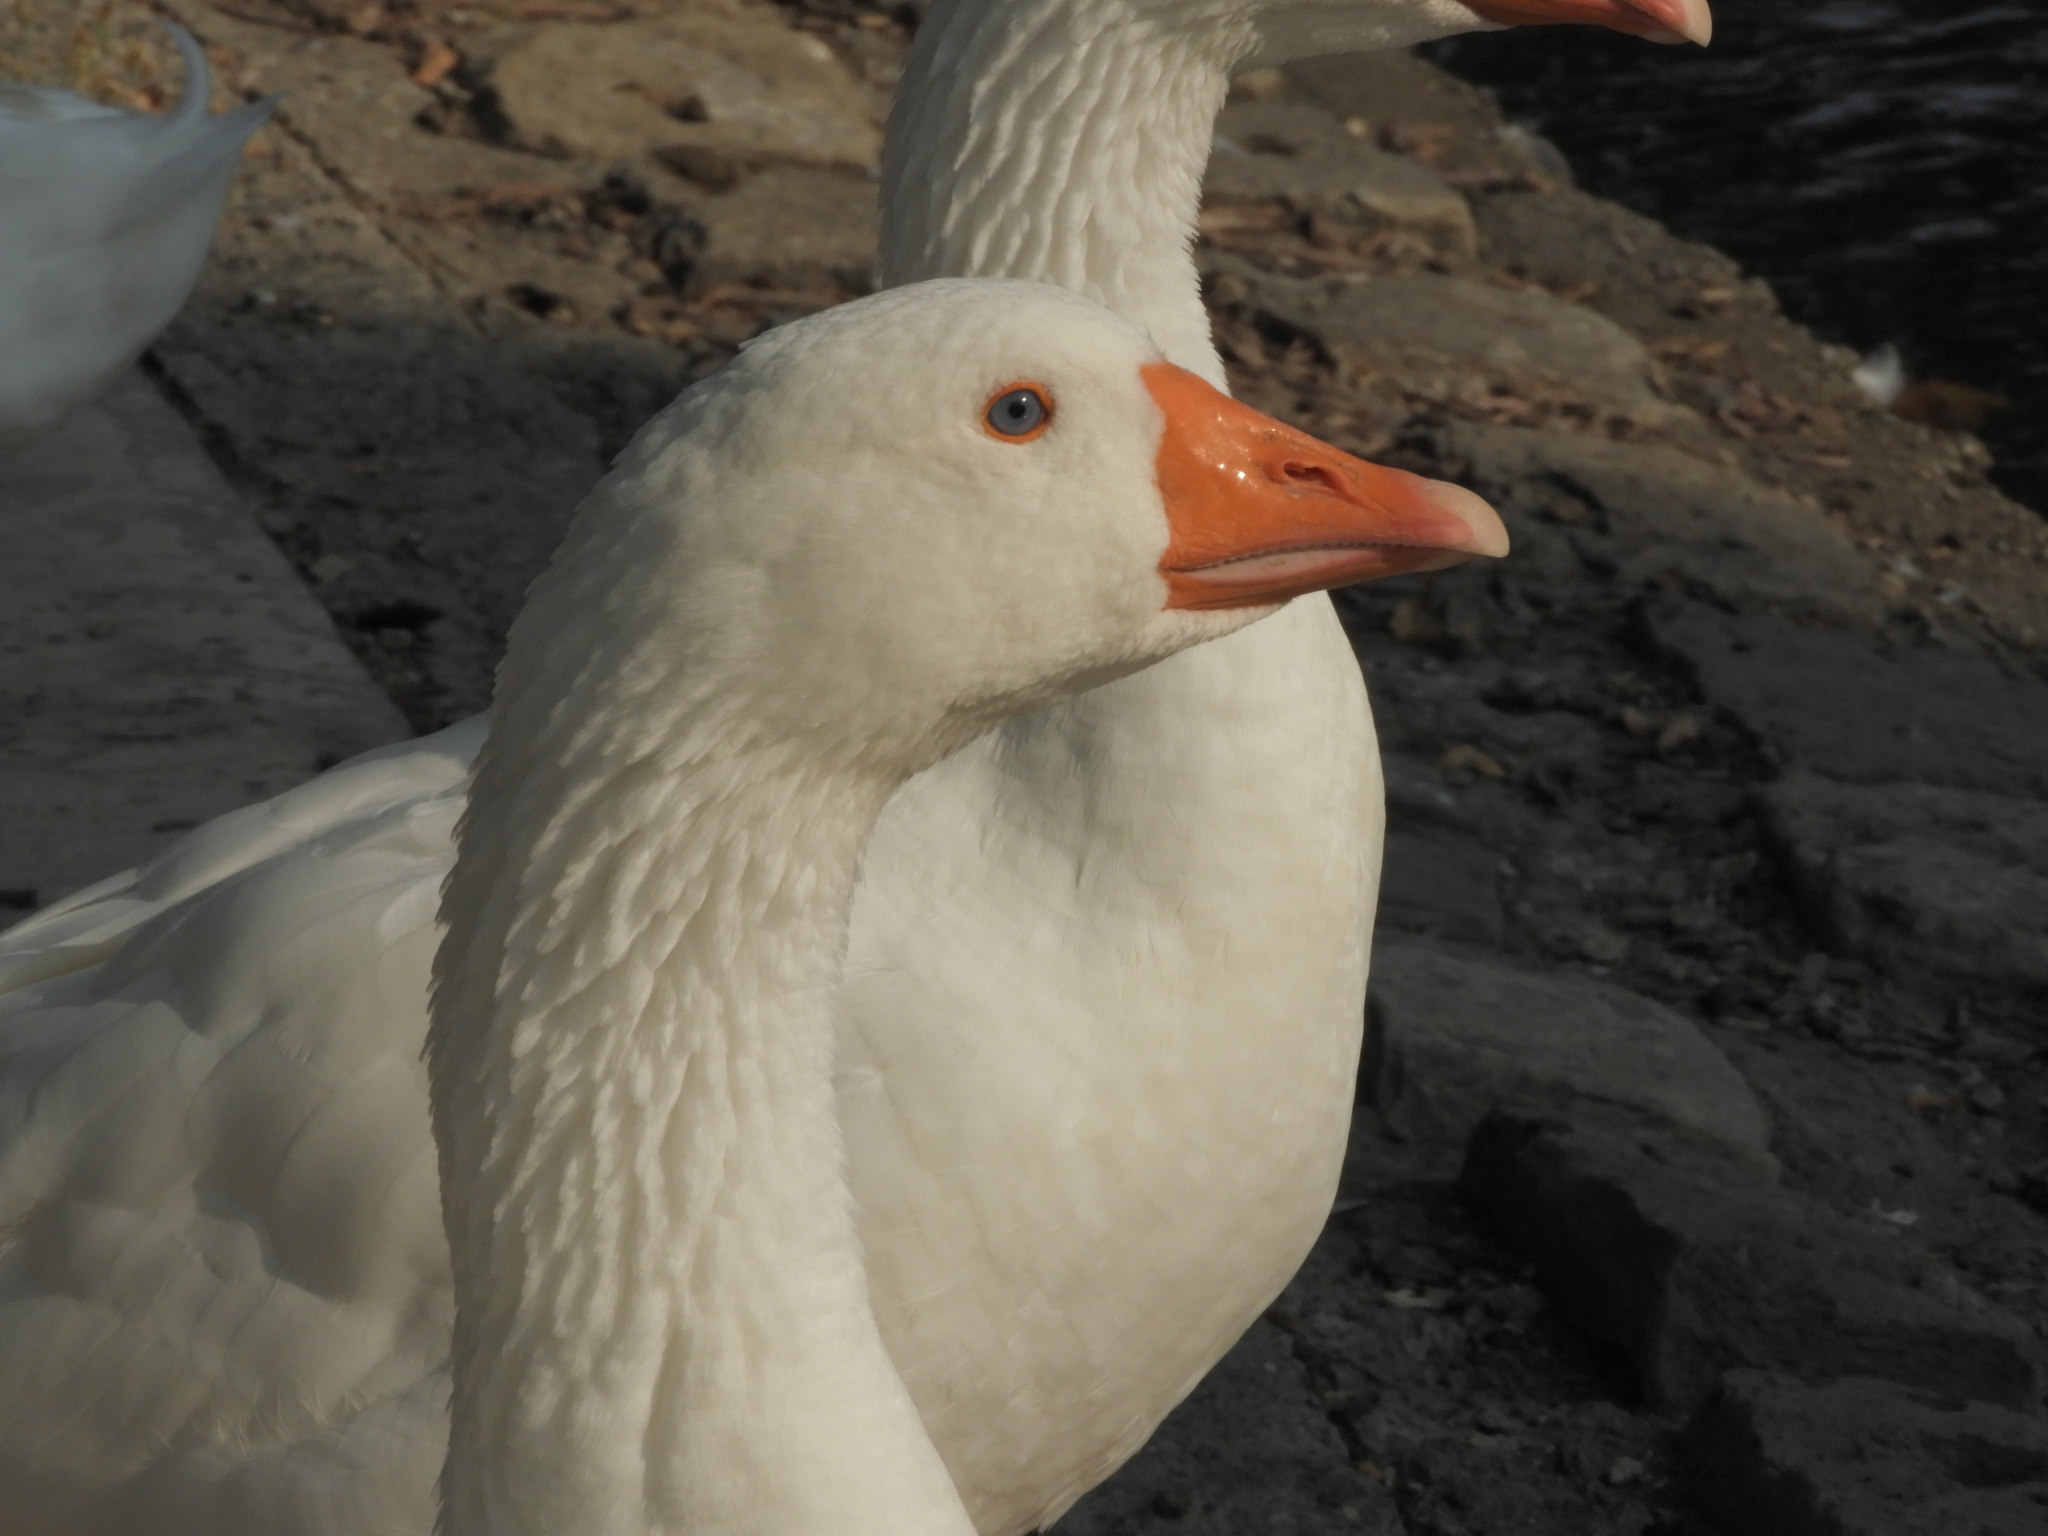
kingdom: Animalia
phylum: Chordata
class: Aves
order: Anseriformes
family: Anatidae
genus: Anser
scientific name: Anser anser
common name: Greylag goose
